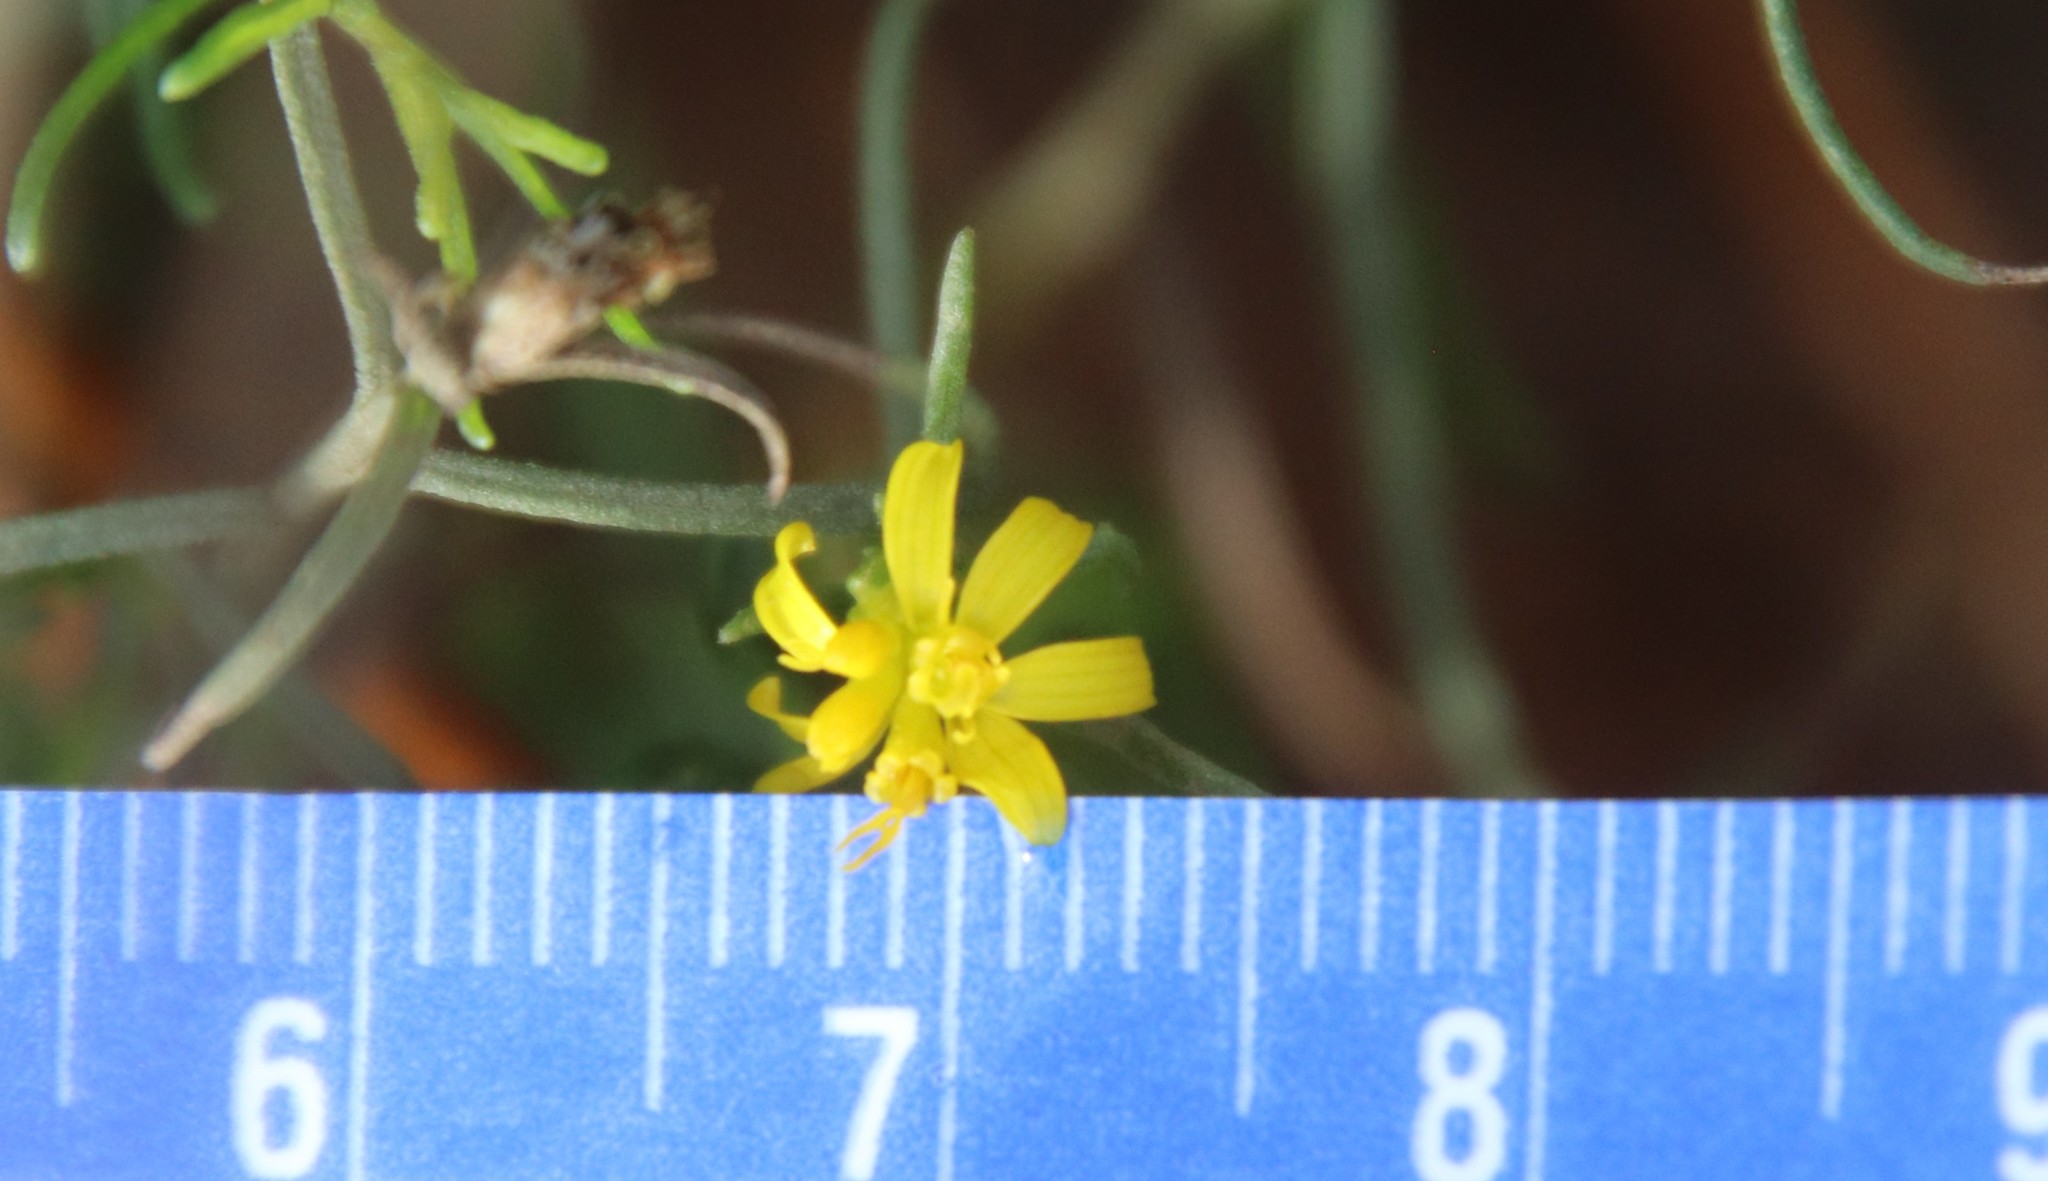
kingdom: Plantae
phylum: Tracheophyta
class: Magnoliopsida
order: Asterales
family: Asteraceae
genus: Gutierrezia
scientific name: Gutierrezia sarothrae
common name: Broom snakeweed
